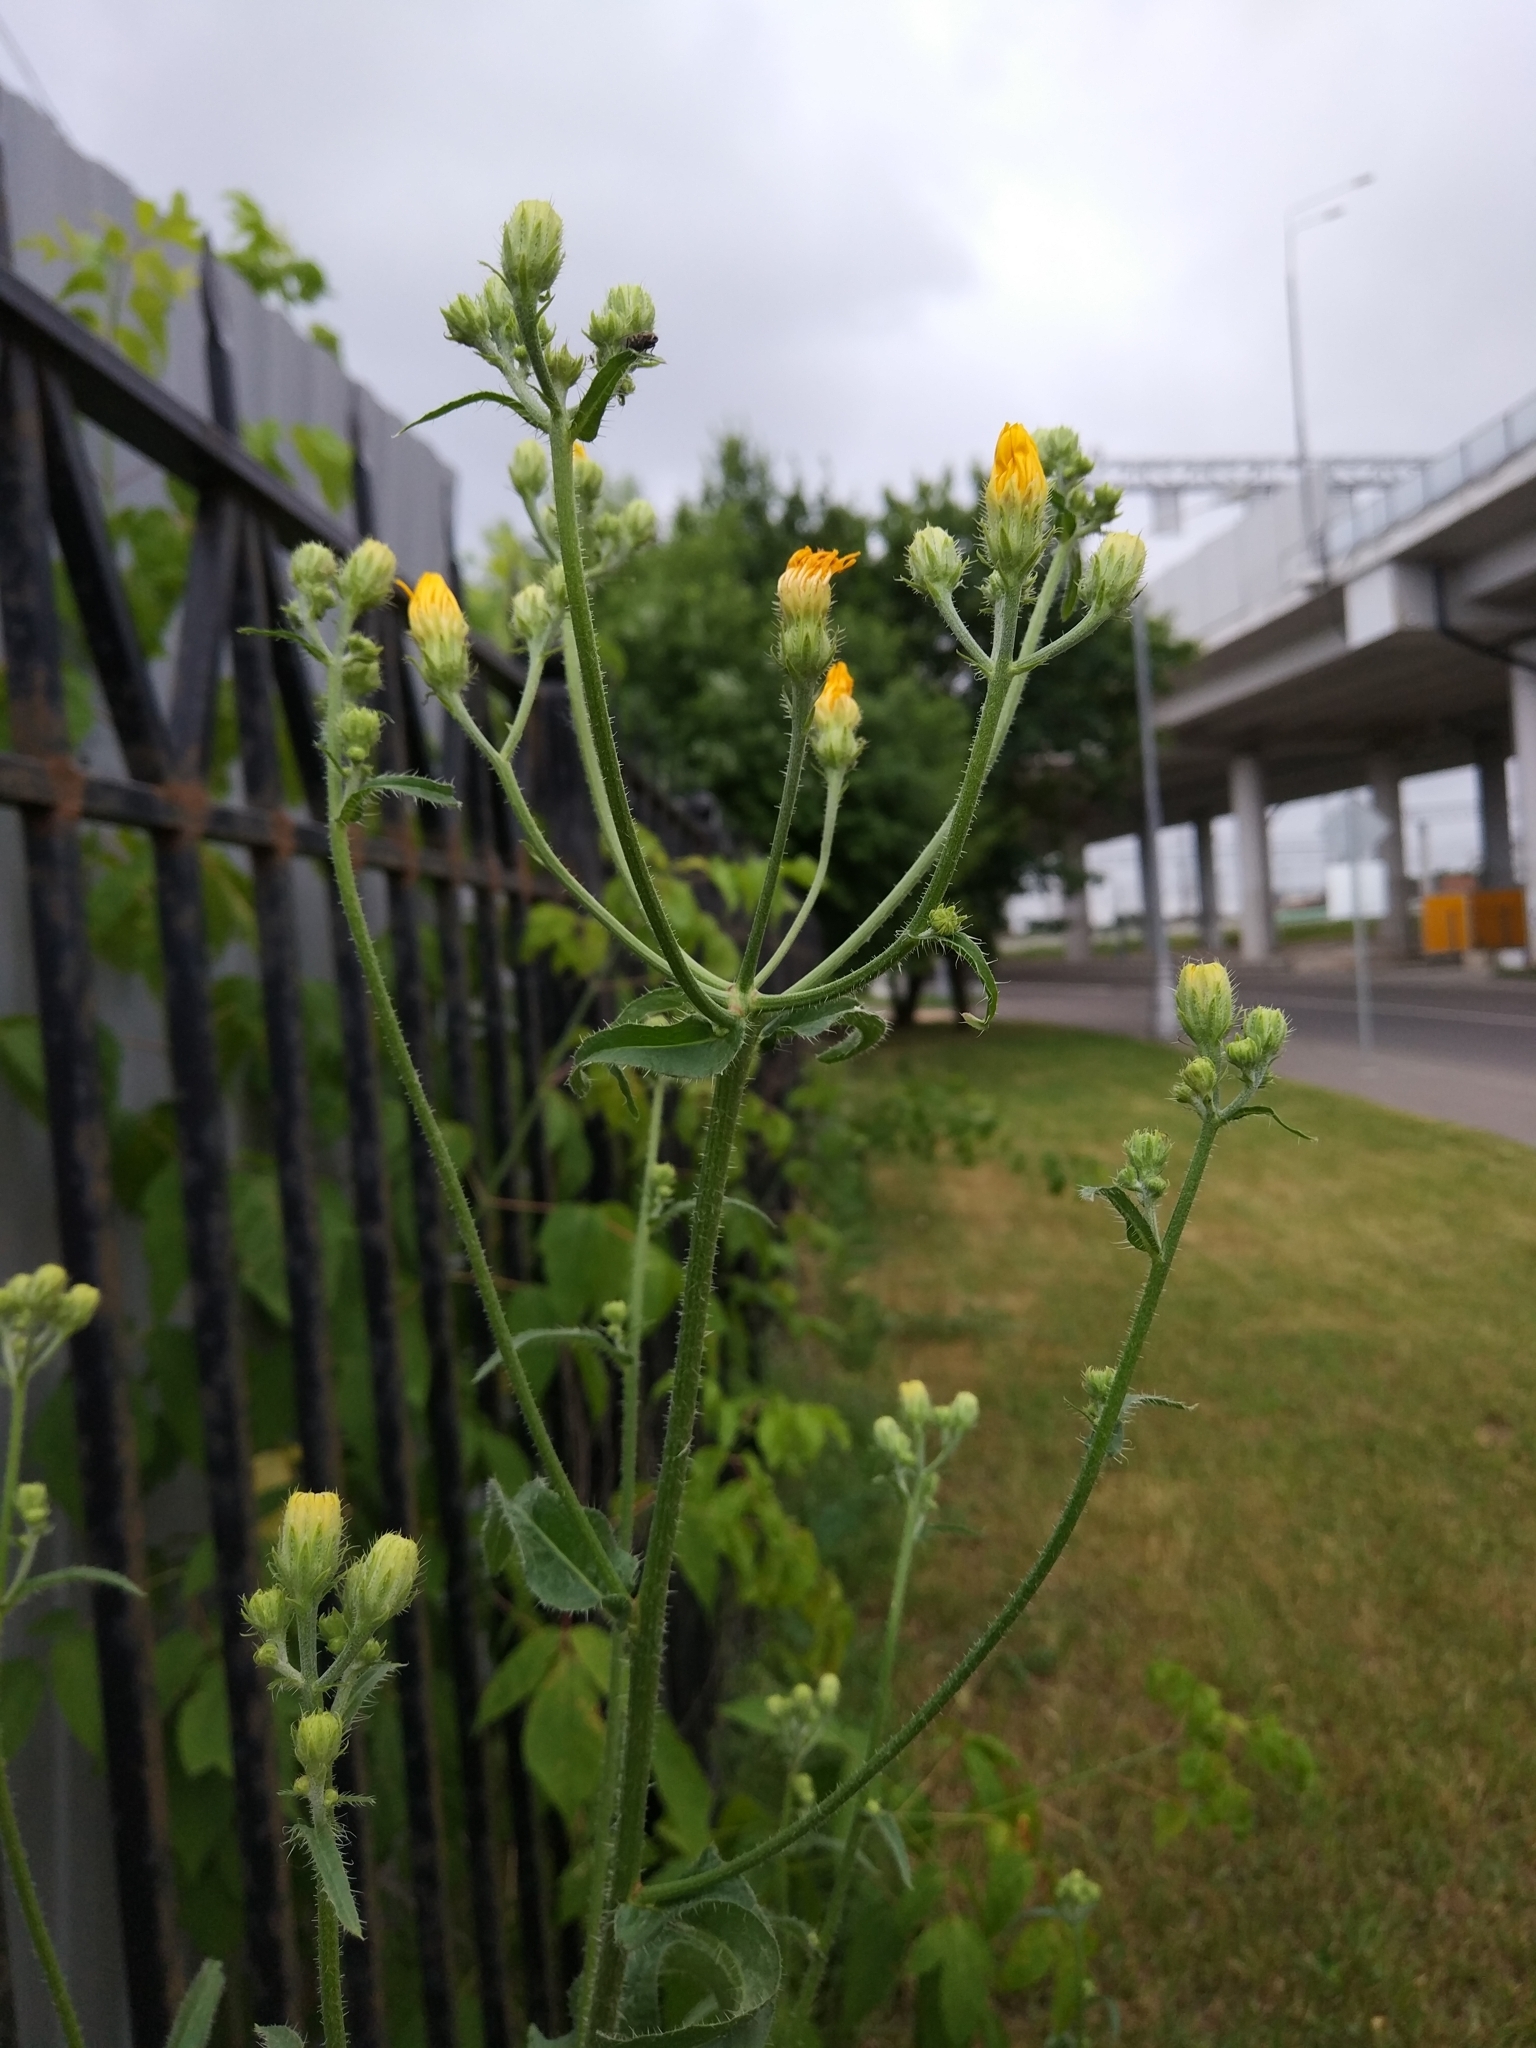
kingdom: Plantae
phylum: Tracheophyta
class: Magnoliopsida
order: Asterales
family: Asteraceae
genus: Picris
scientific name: Picris hieracioides
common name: Hawkweed oxtongue
